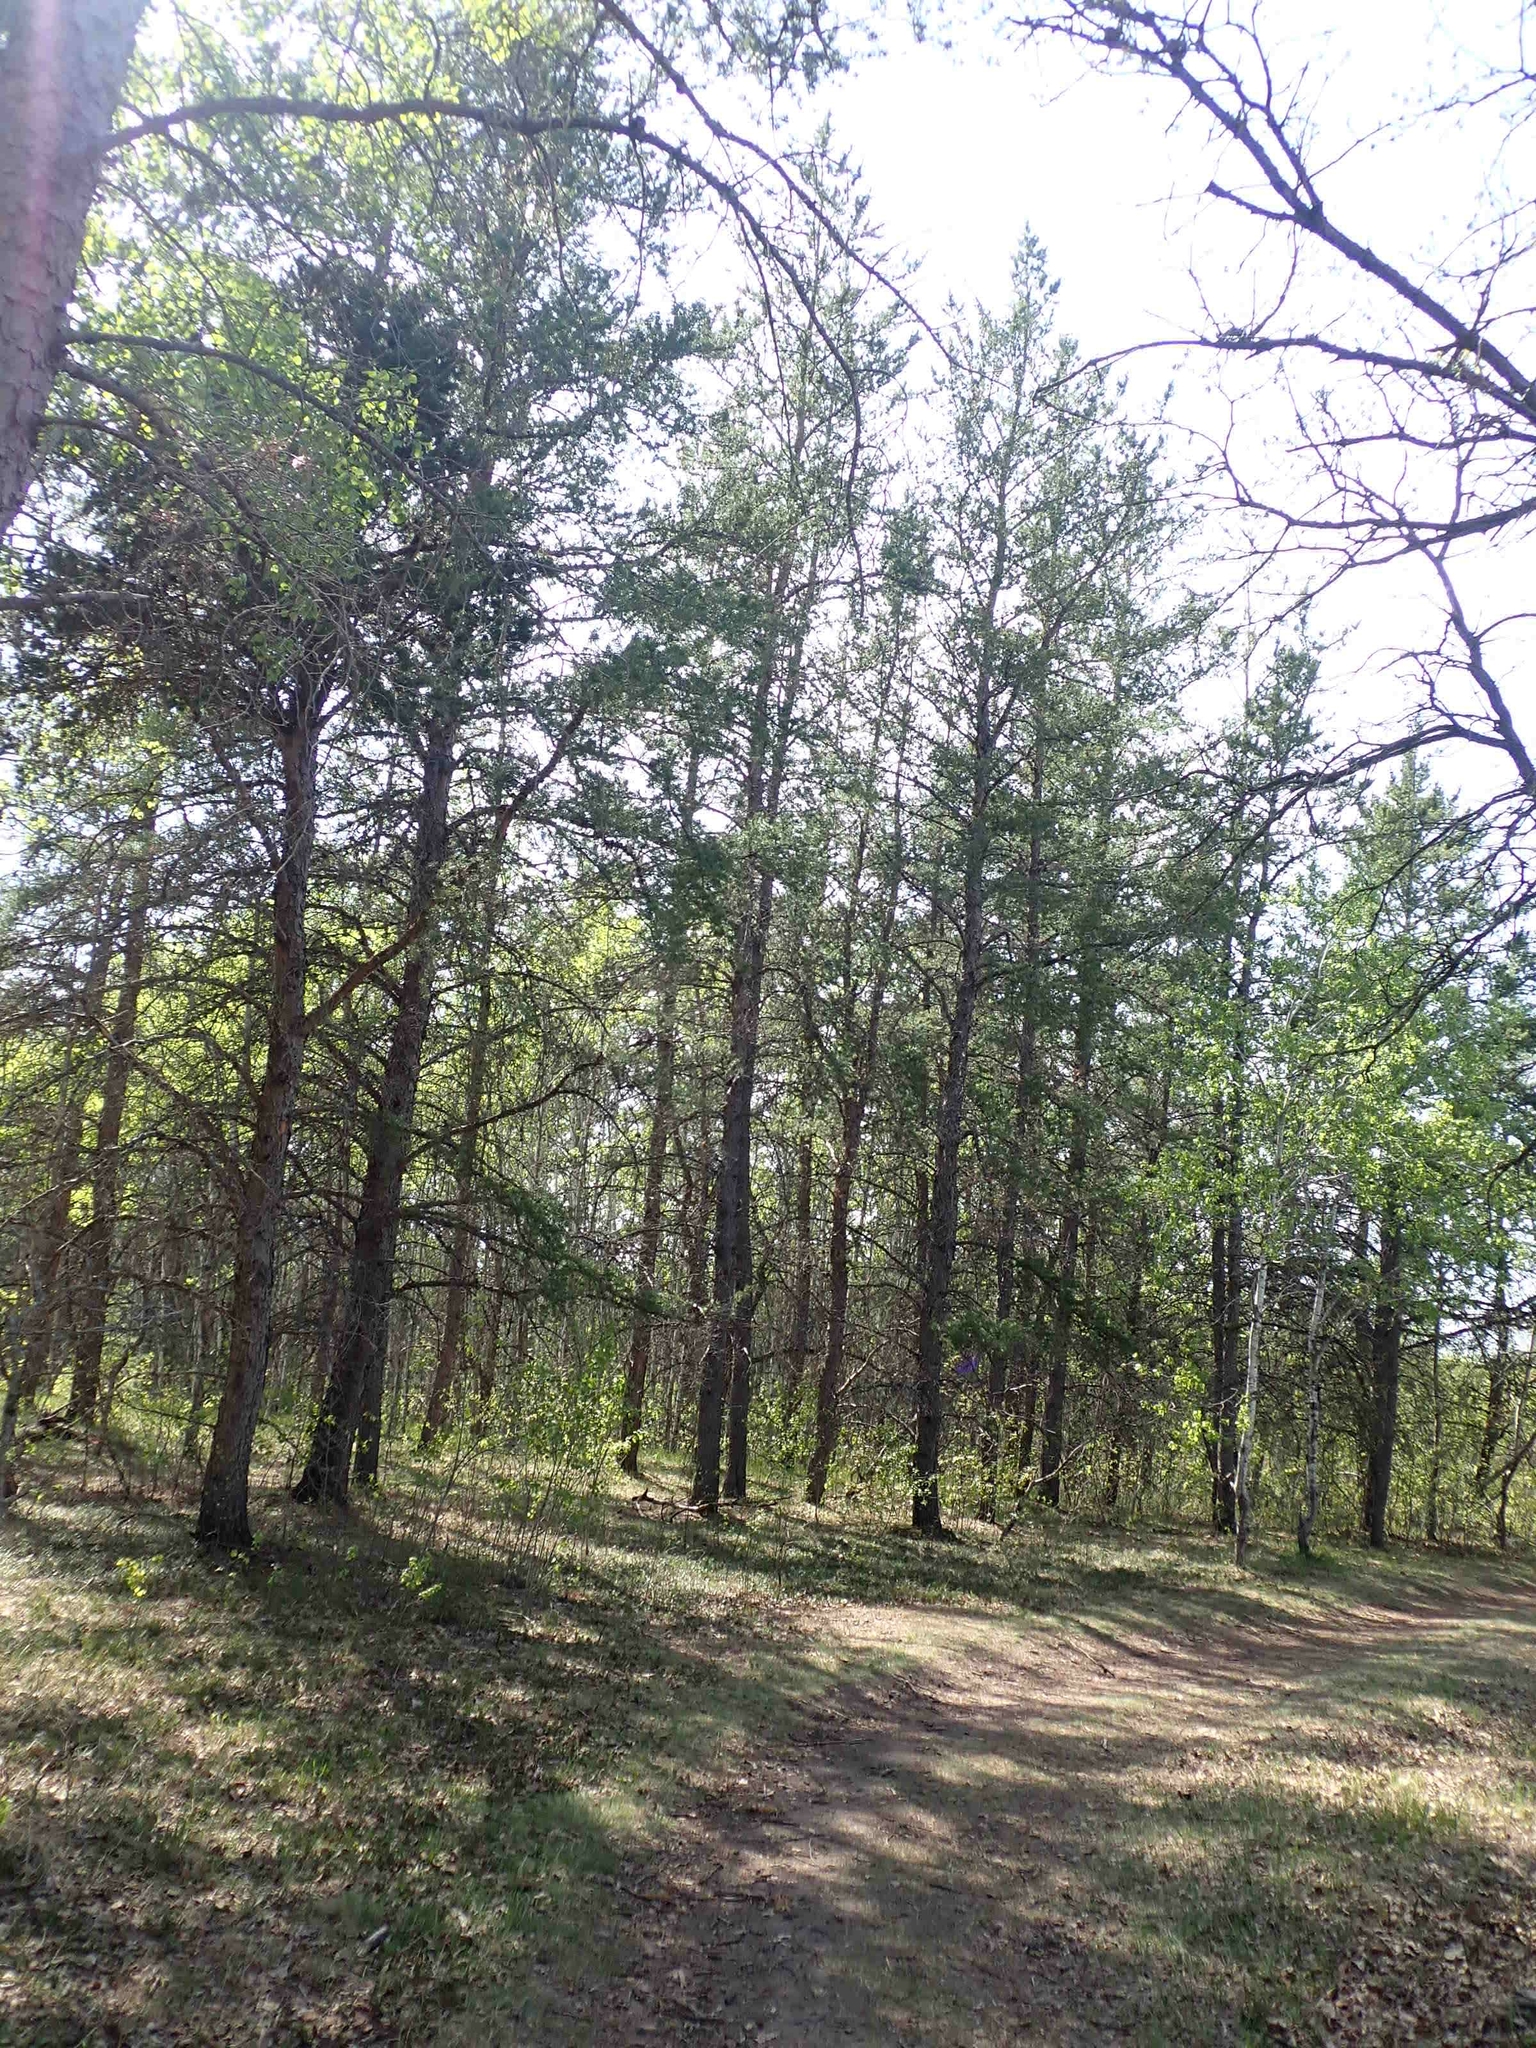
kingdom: Plantae
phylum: Tracheophyta
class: Pinopsida
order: Pinales
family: Pinaceae
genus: Pinus
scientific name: Pinus banksiana
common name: Jack pine
